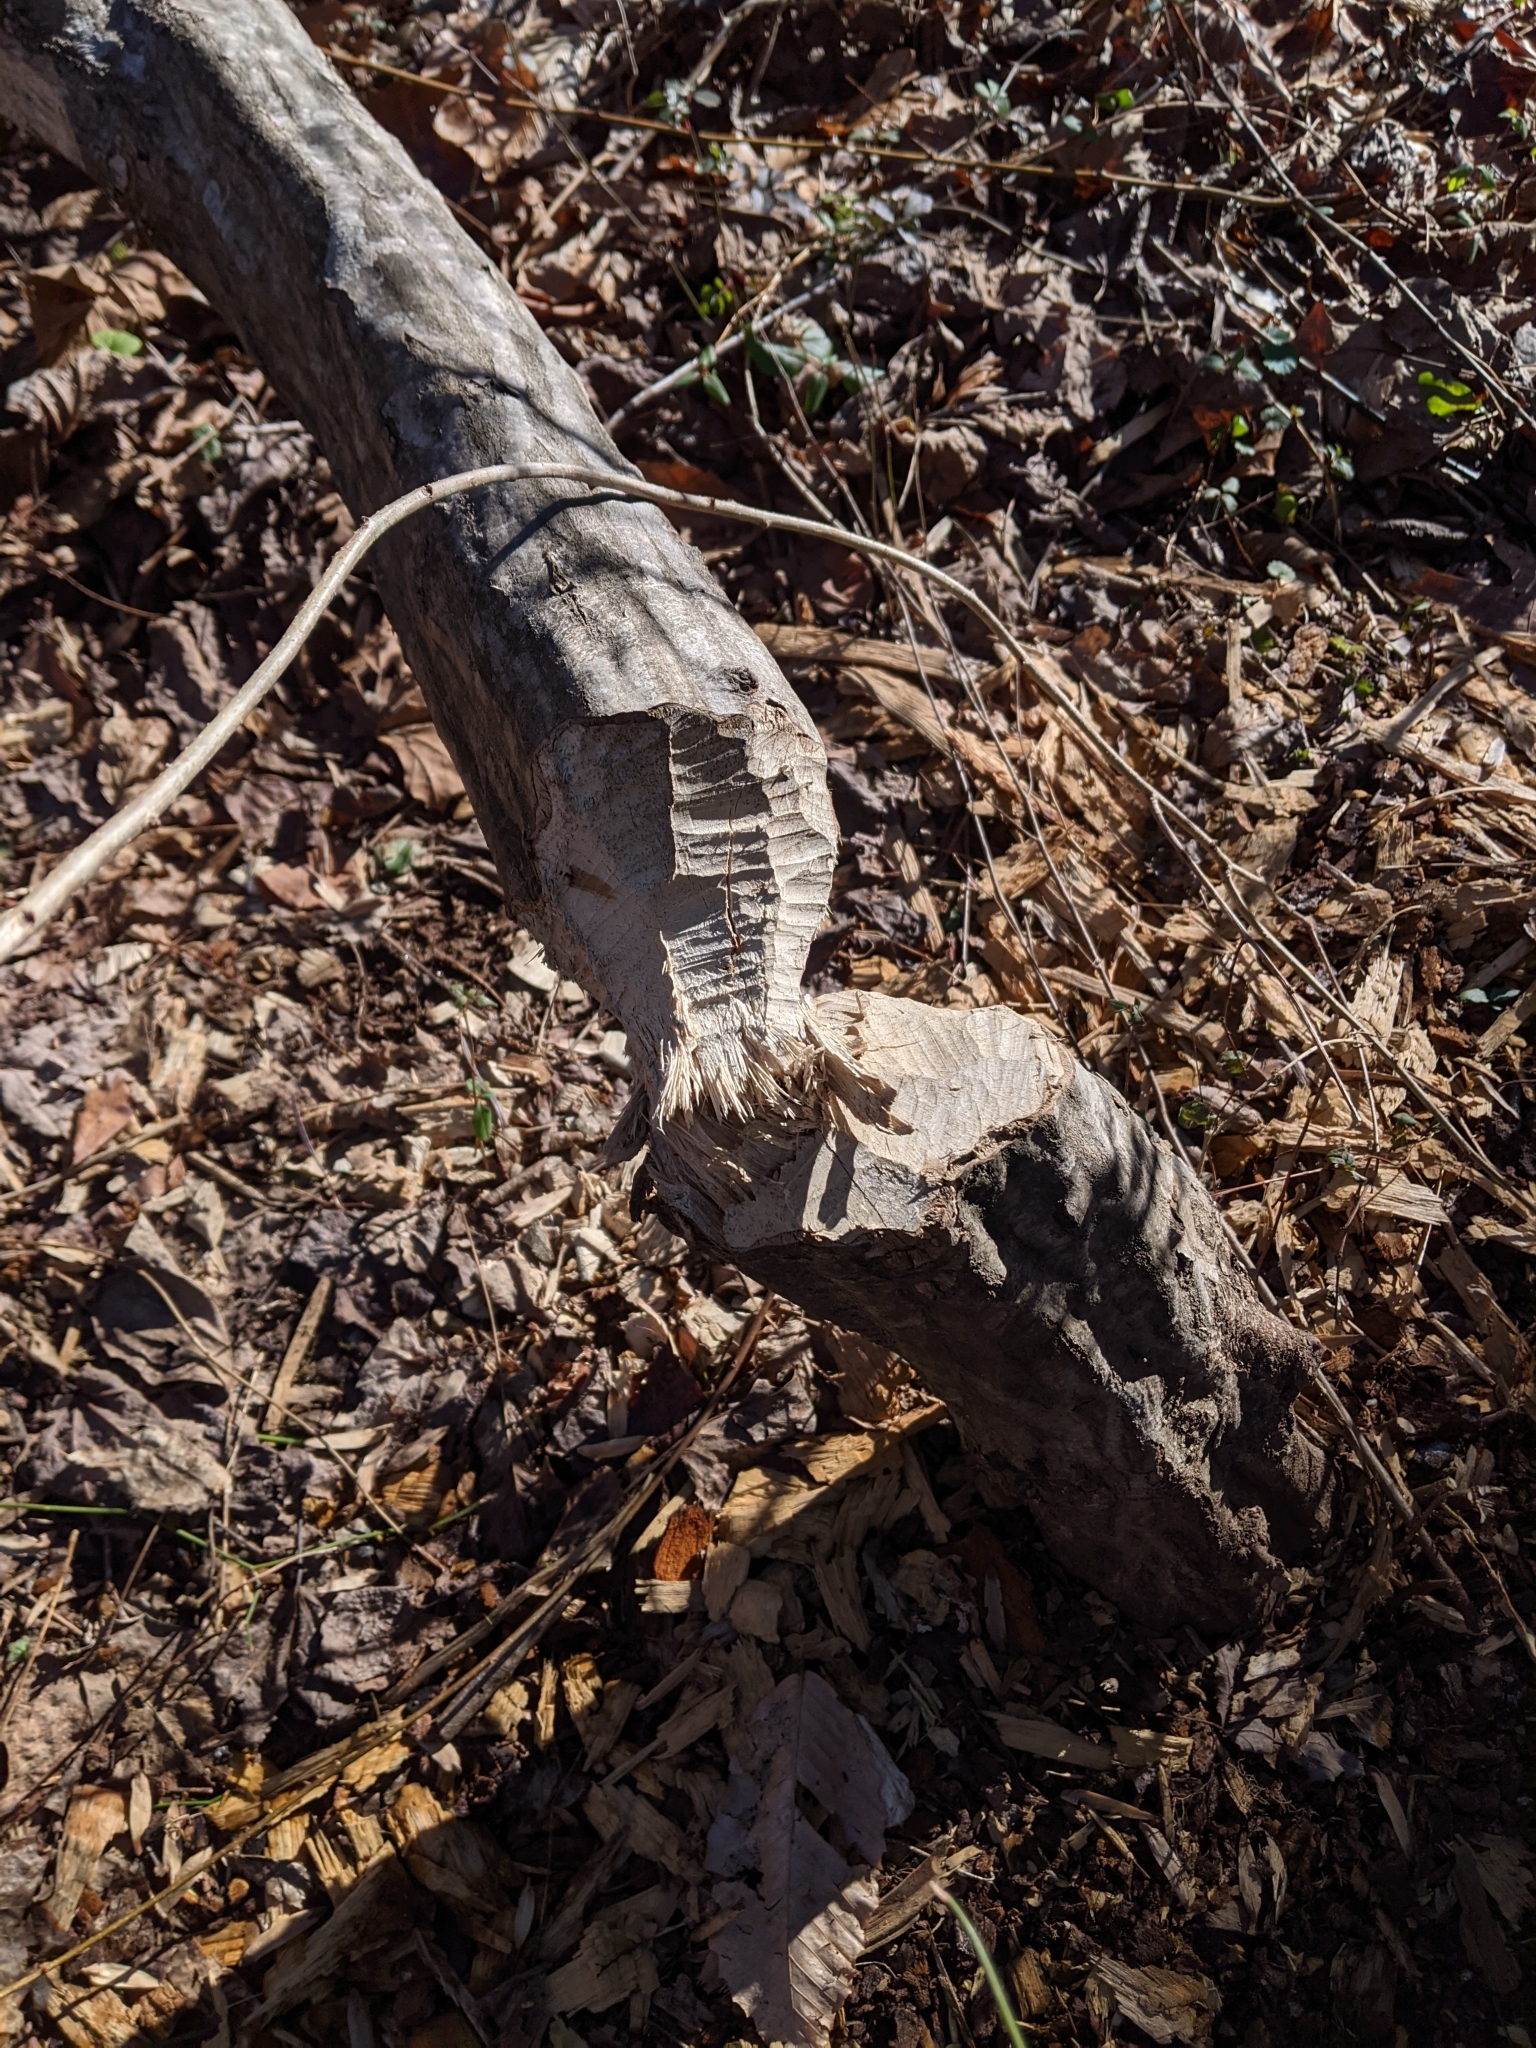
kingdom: Animalia
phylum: Chordata
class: Mammalia
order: Rodentia
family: Castoridae
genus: Castor
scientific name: Castor canadensis
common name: American beaver
